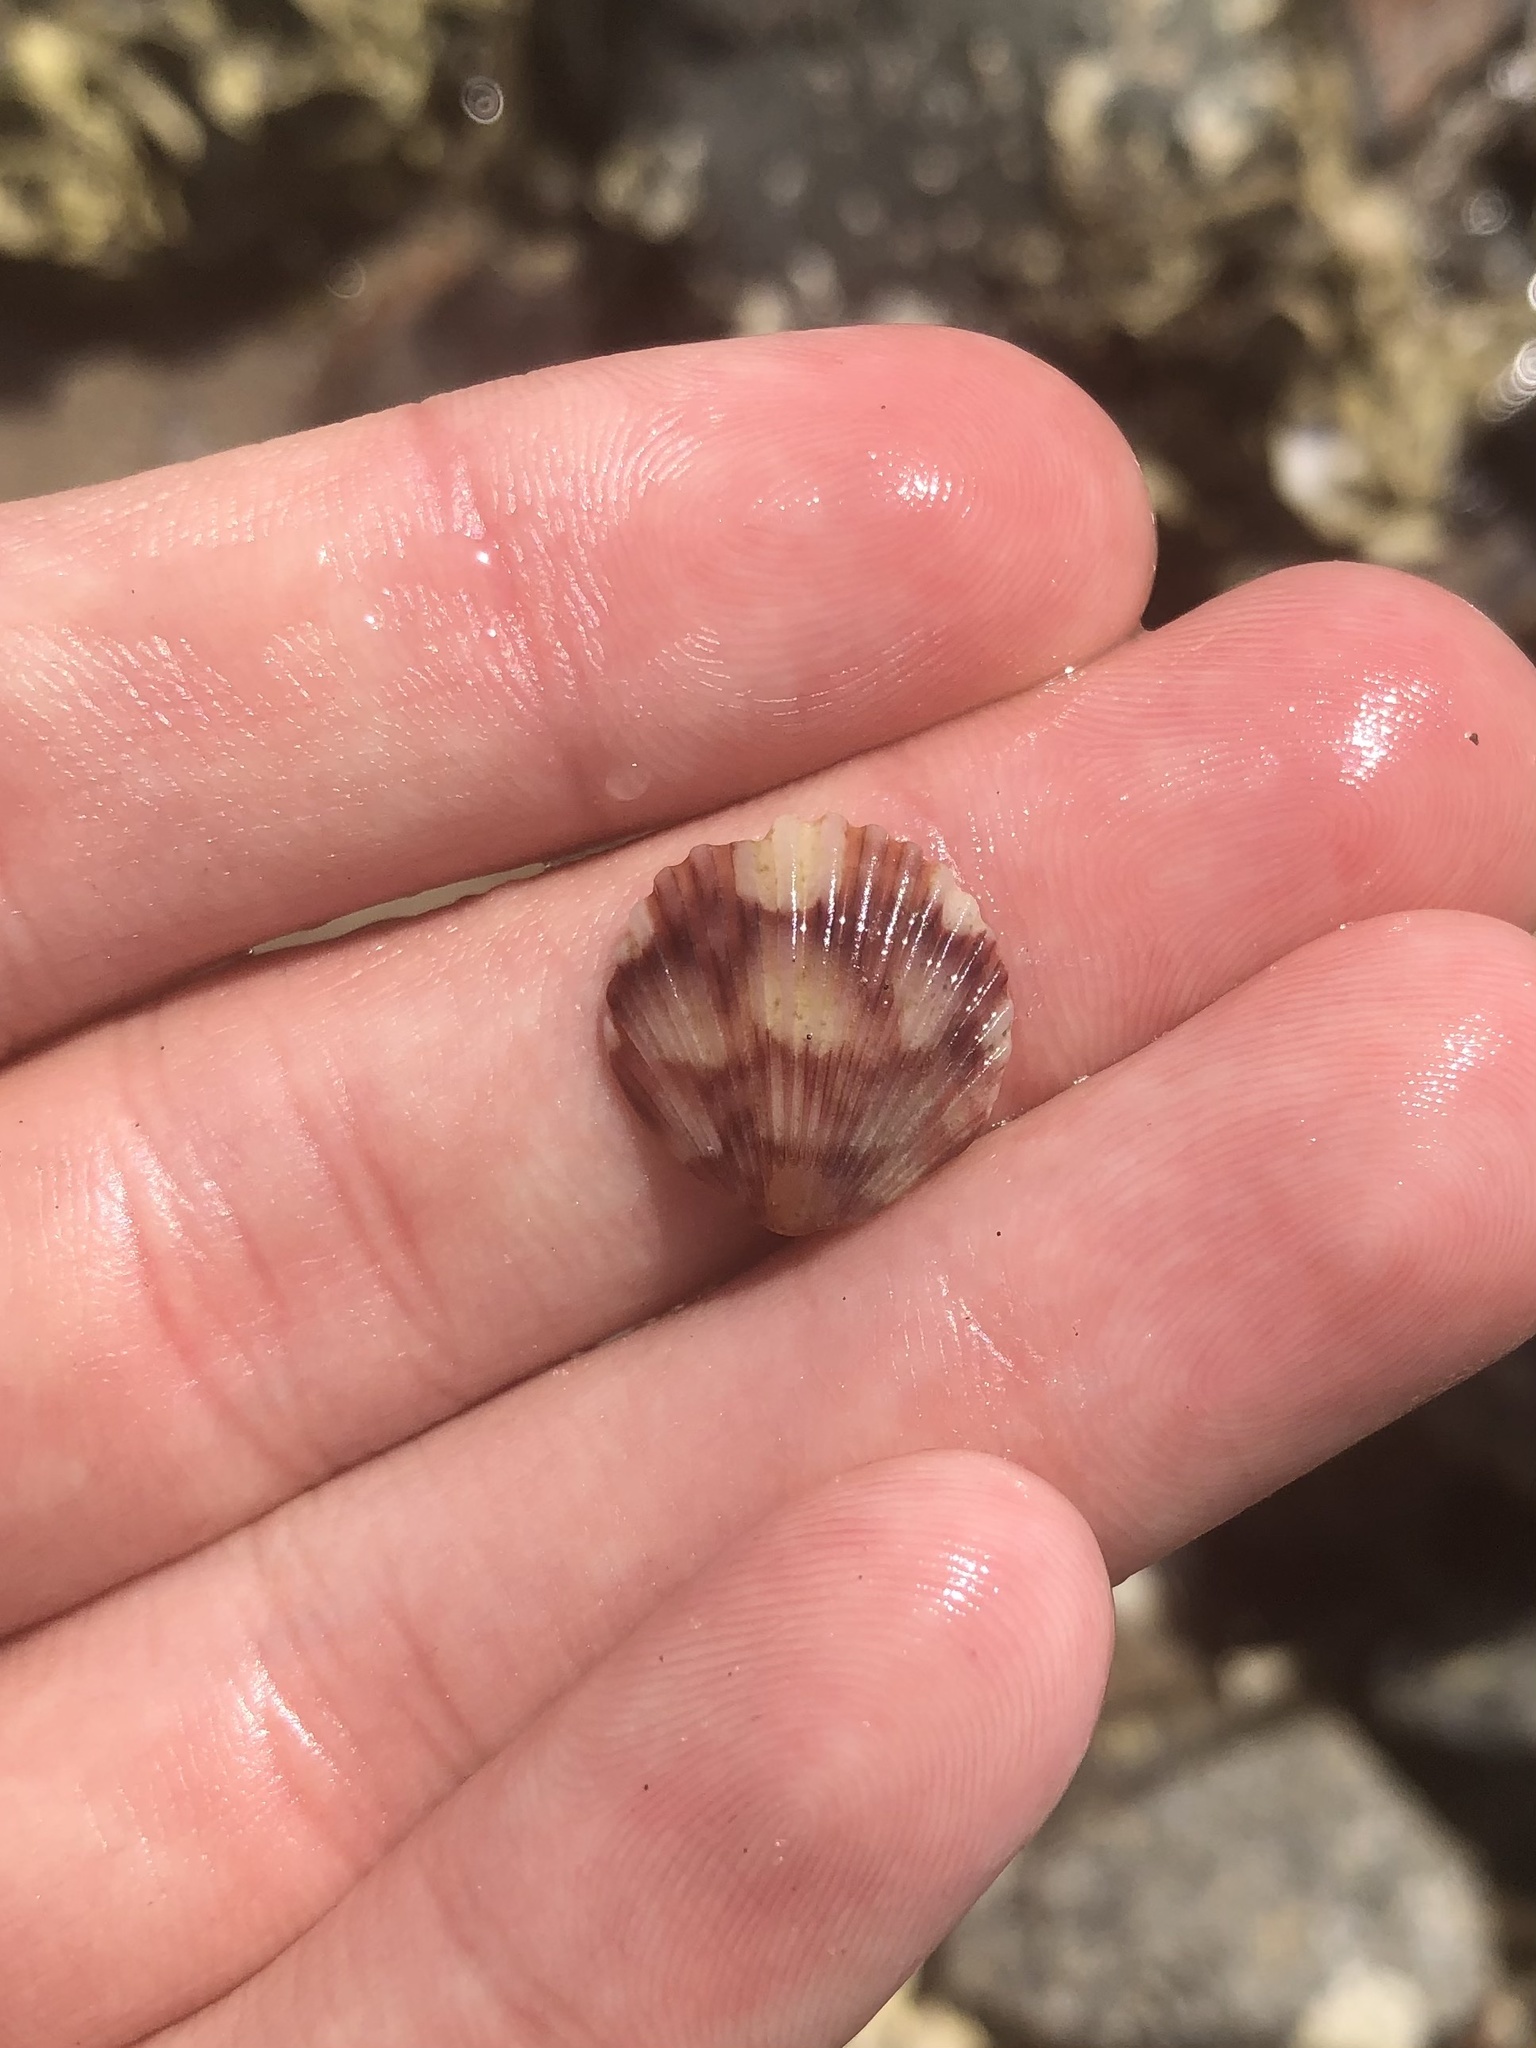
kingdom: Animalia
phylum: Mollusca
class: Bivalvia
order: Pectinida
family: Pectinidae
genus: Argopecten
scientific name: Argopecten gibbus
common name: Atlantic calico scallop
